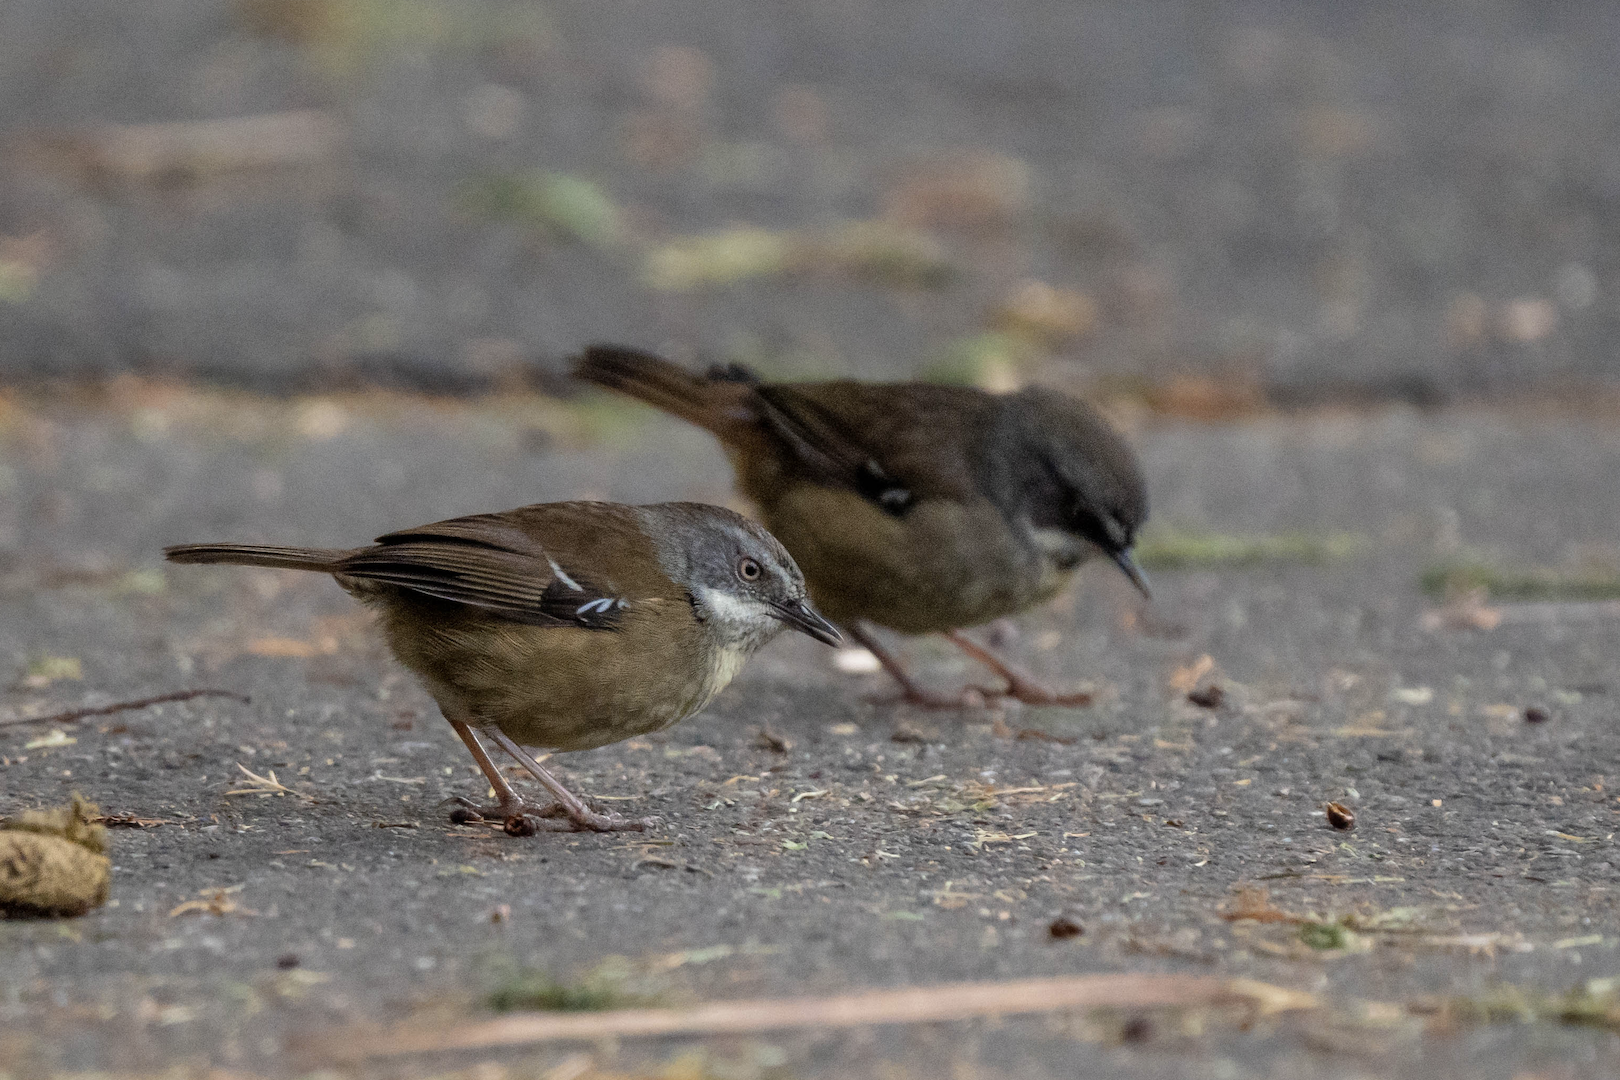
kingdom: Animalia
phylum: Chordata
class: Aves
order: Passeriformes
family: Acanthizidae
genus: Sericornis
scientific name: Sericornis frontalis
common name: White-browed scrubwren
